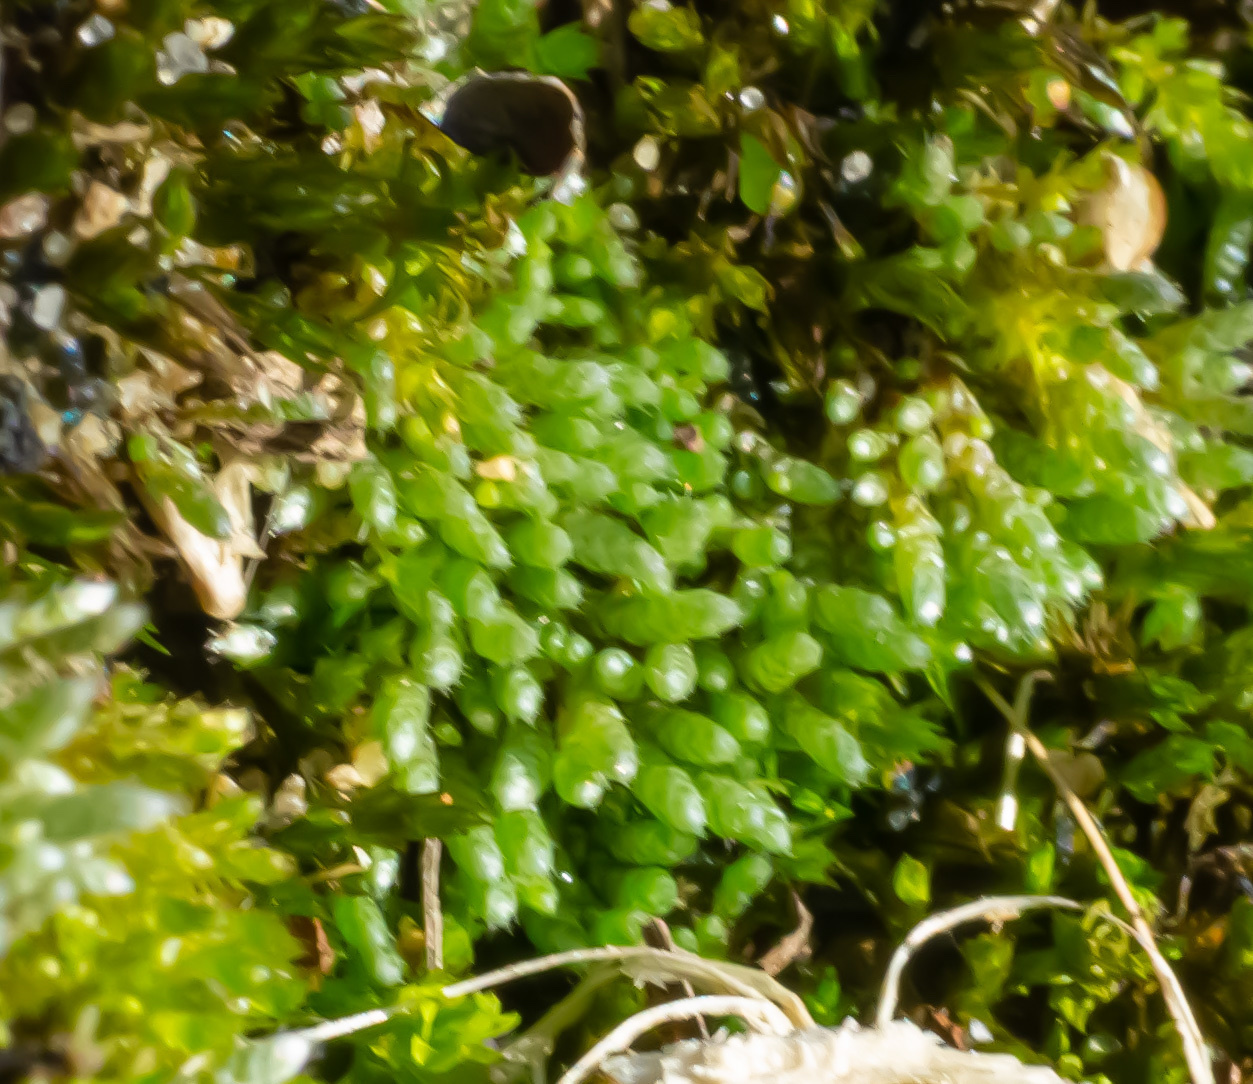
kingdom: Plantae
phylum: Bryophyta
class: Bryopsida
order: Bryales
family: Bryaceae
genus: Bryum
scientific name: Bryum argenteum
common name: Silver-moss
